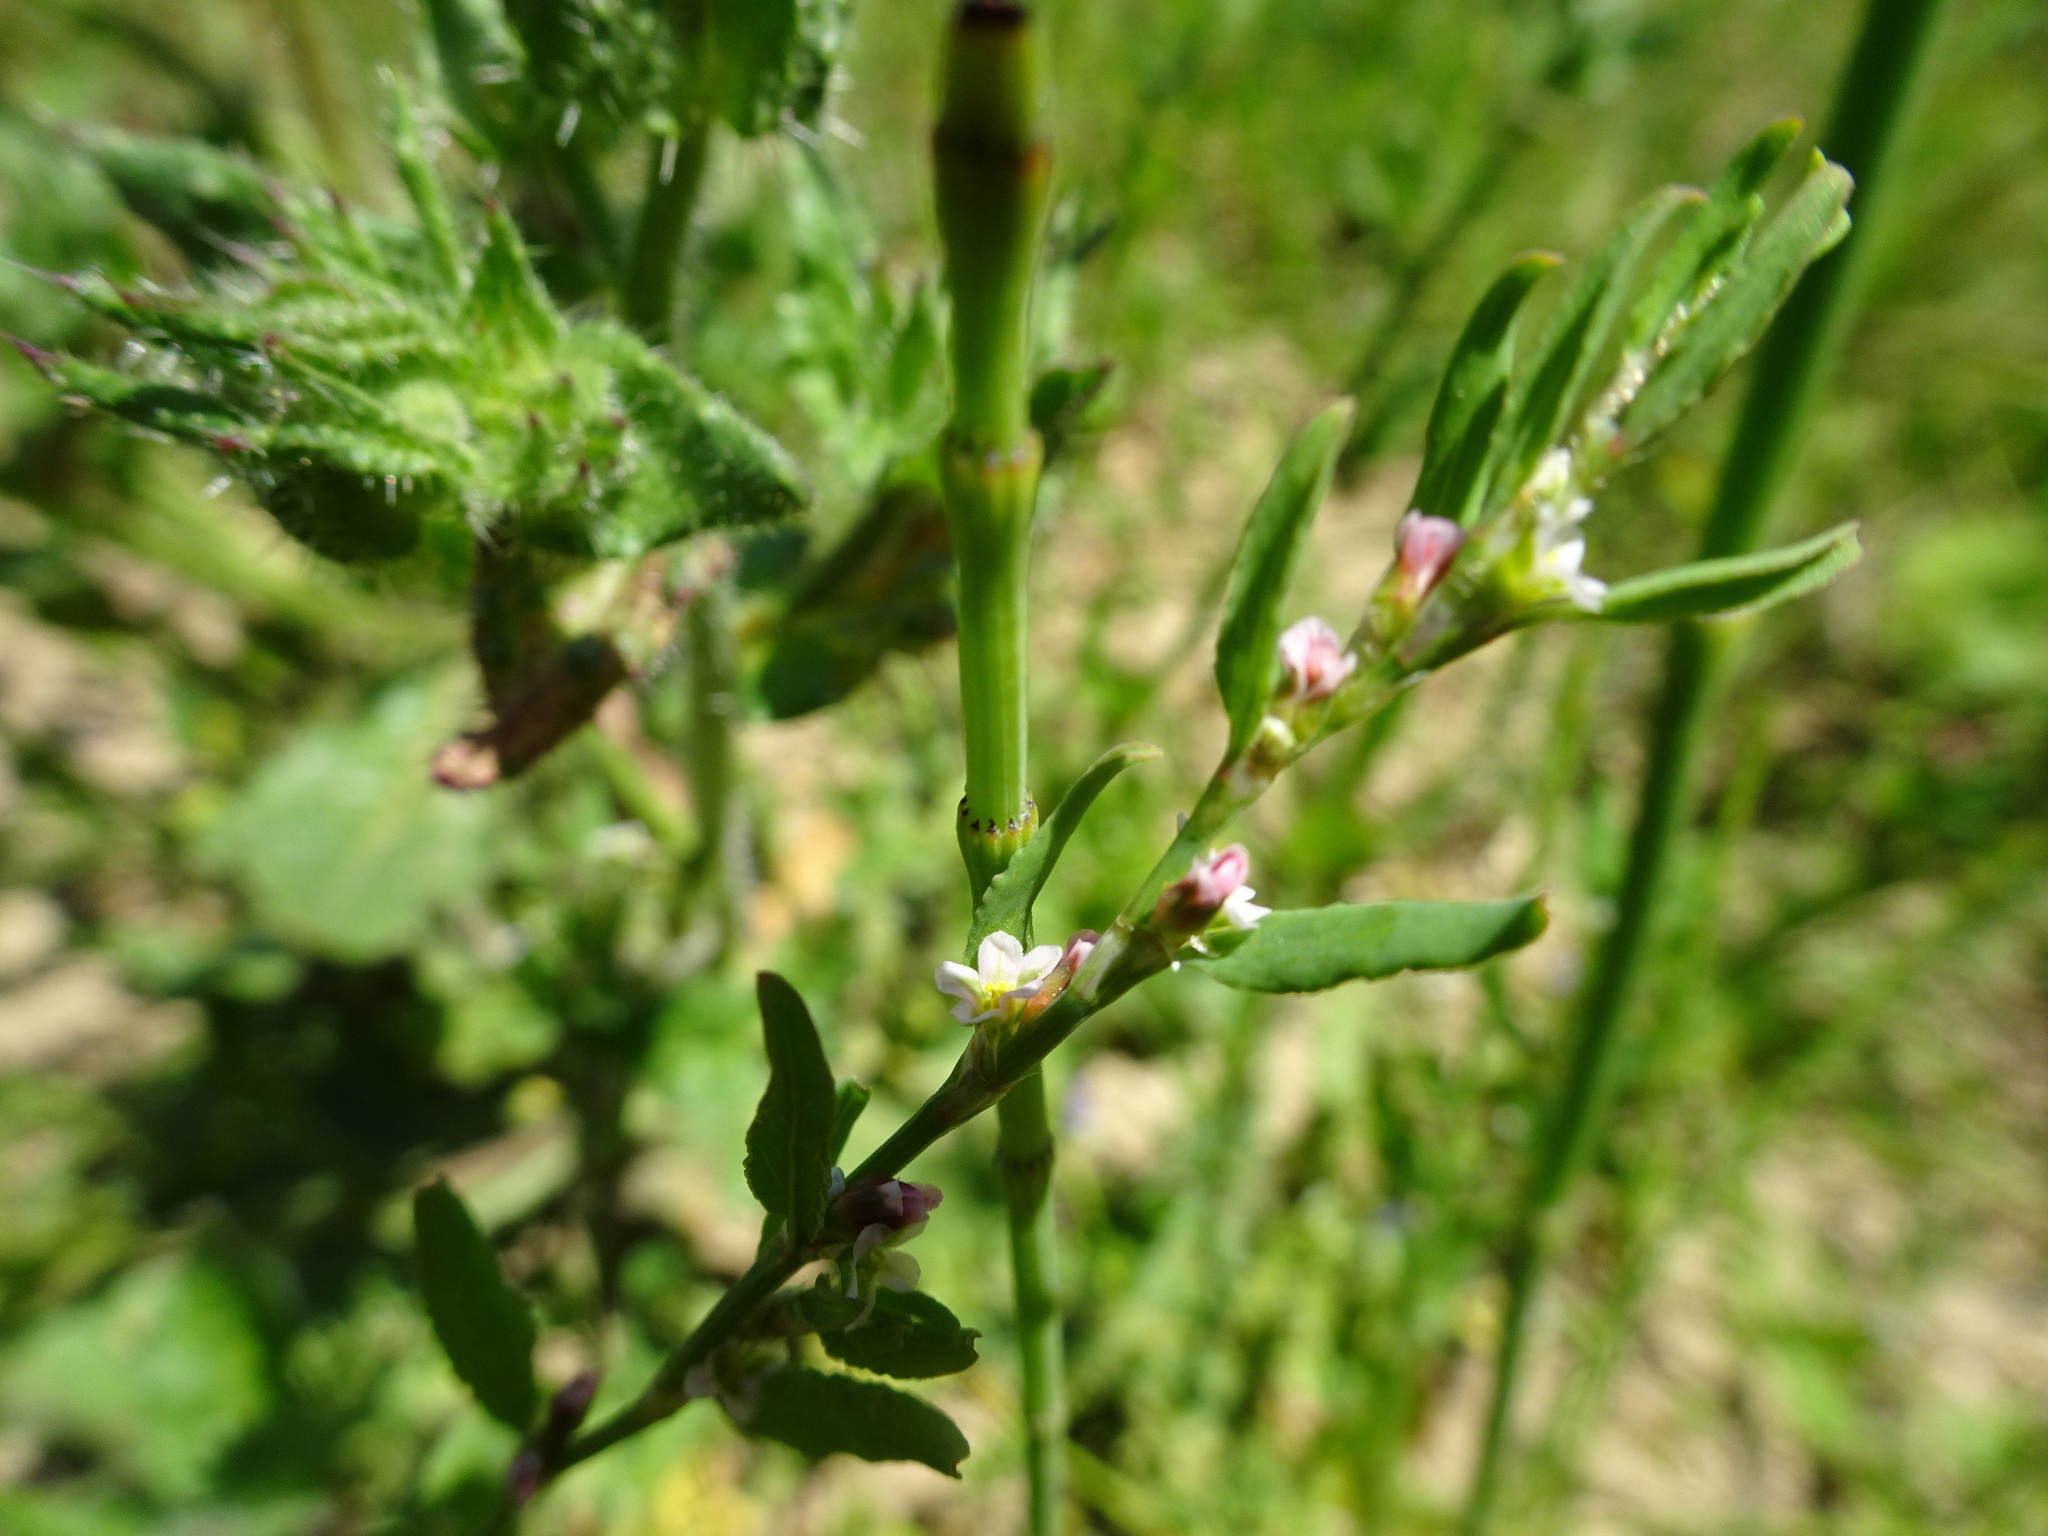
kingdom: Plantae
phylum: Tracheophyta
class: Magnoliopsida
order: Caryophyllales
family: Polygonaceae
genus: Polygonum
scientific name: Polygonum aviculare
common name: Prostrate knotweed
